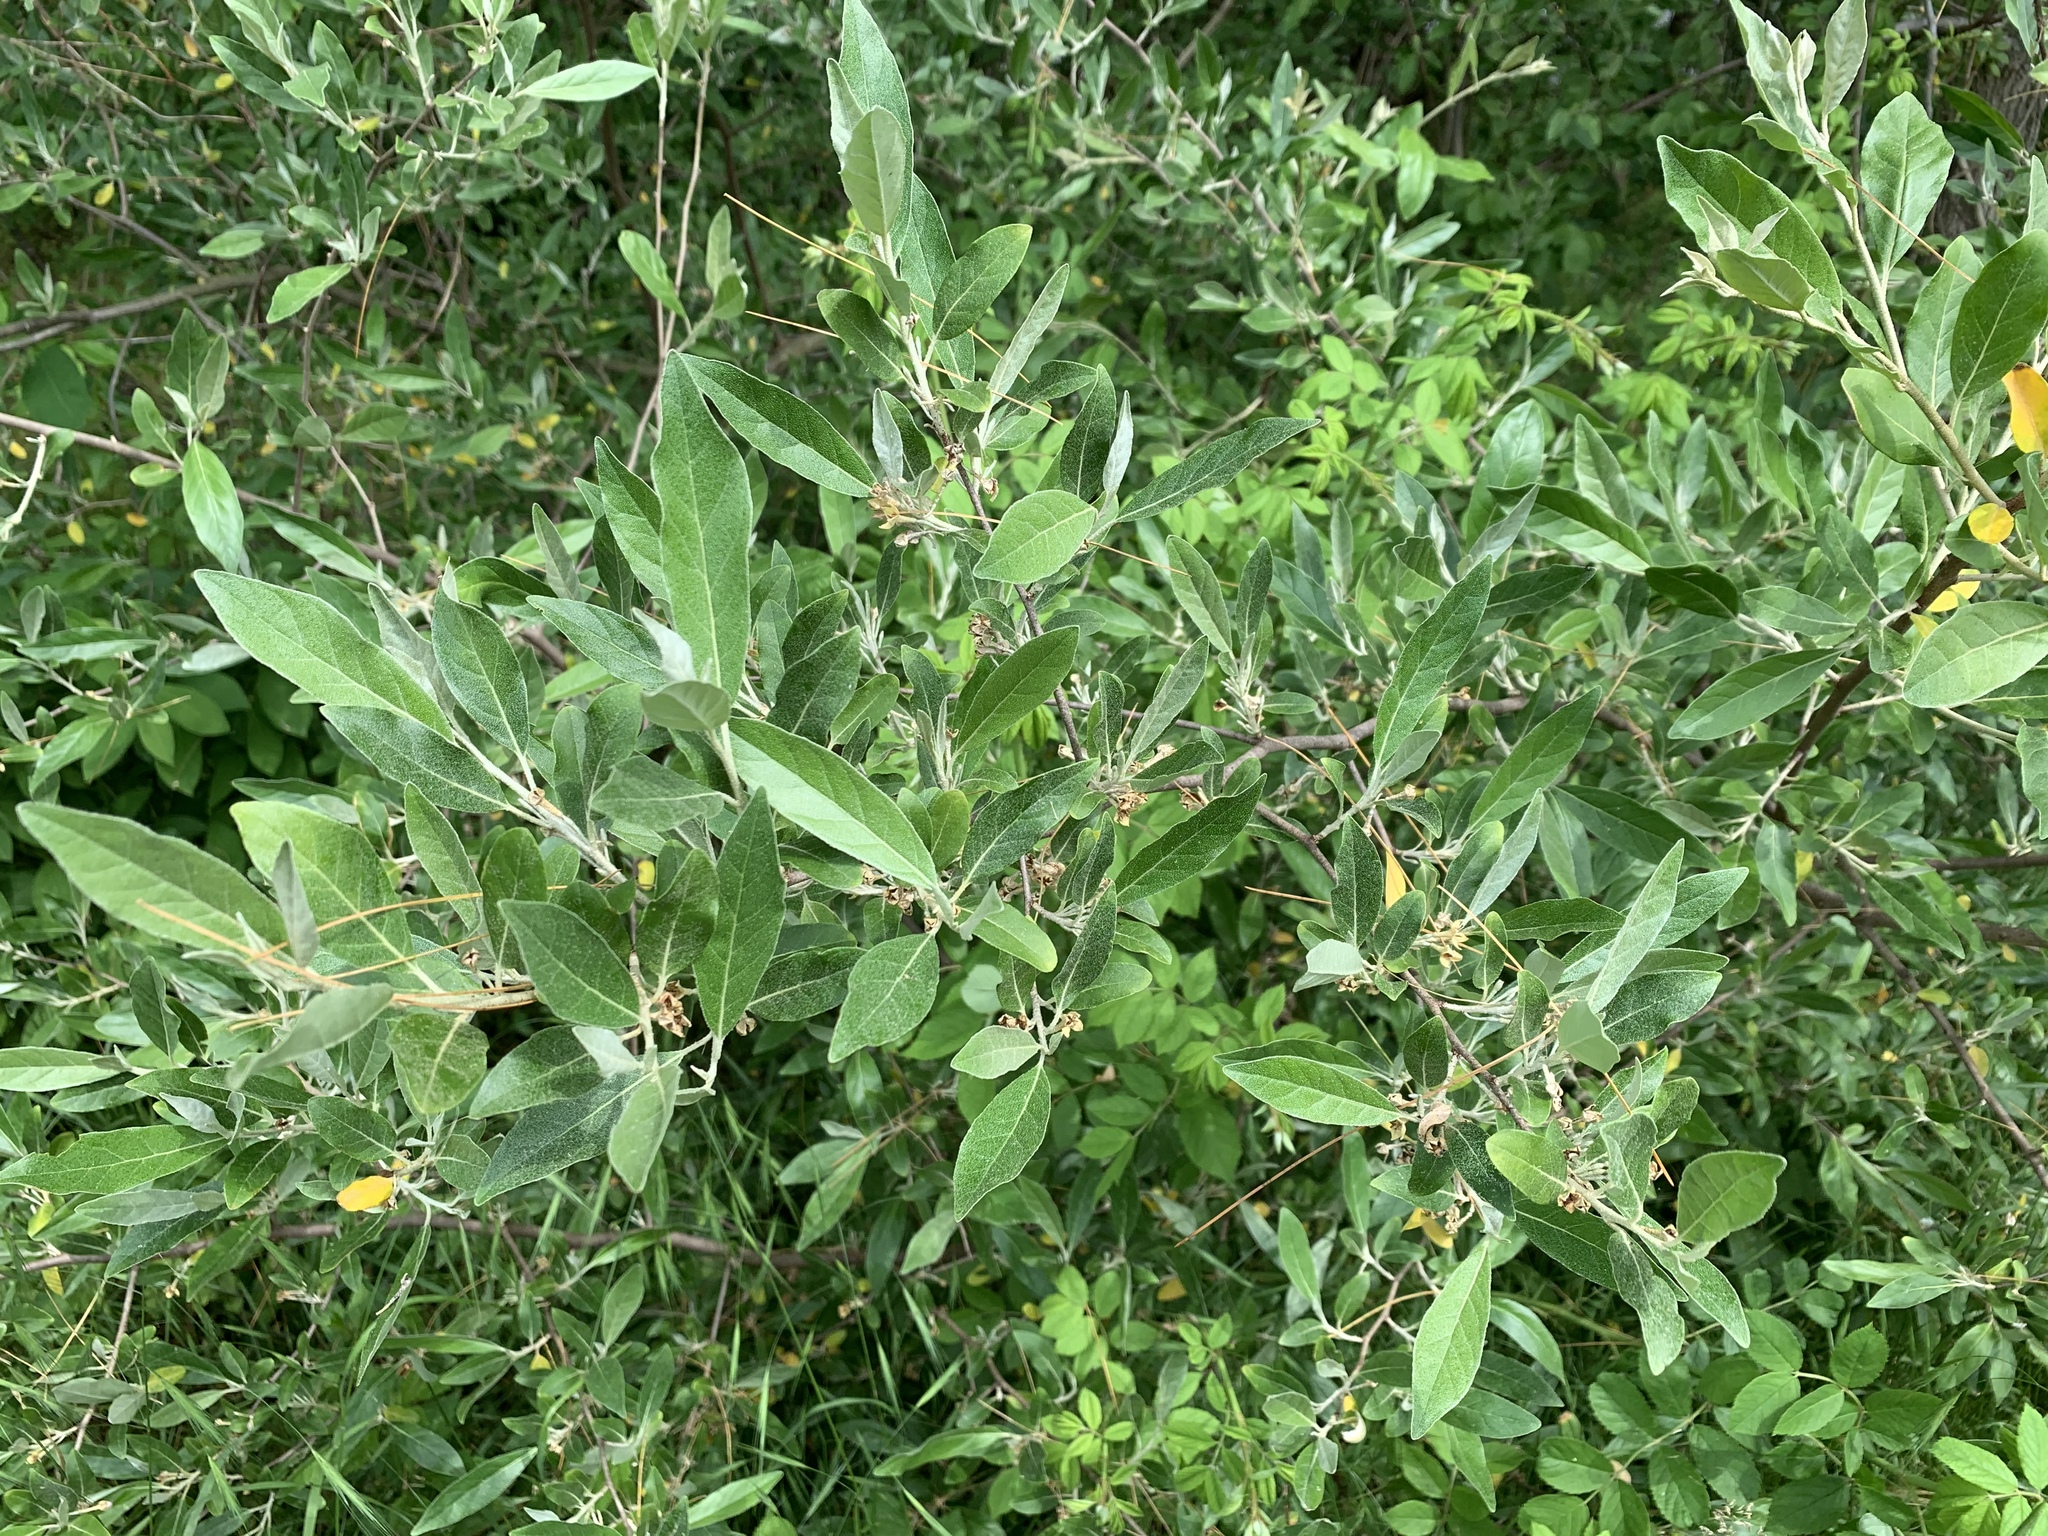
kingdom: Plantae
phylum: Tracheophyta
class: Magnoliopsida
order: Rosales
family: Elaeagnaceae
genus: Elaeagnus
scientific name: Elaeagnus umbellata
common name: Autumn olive
